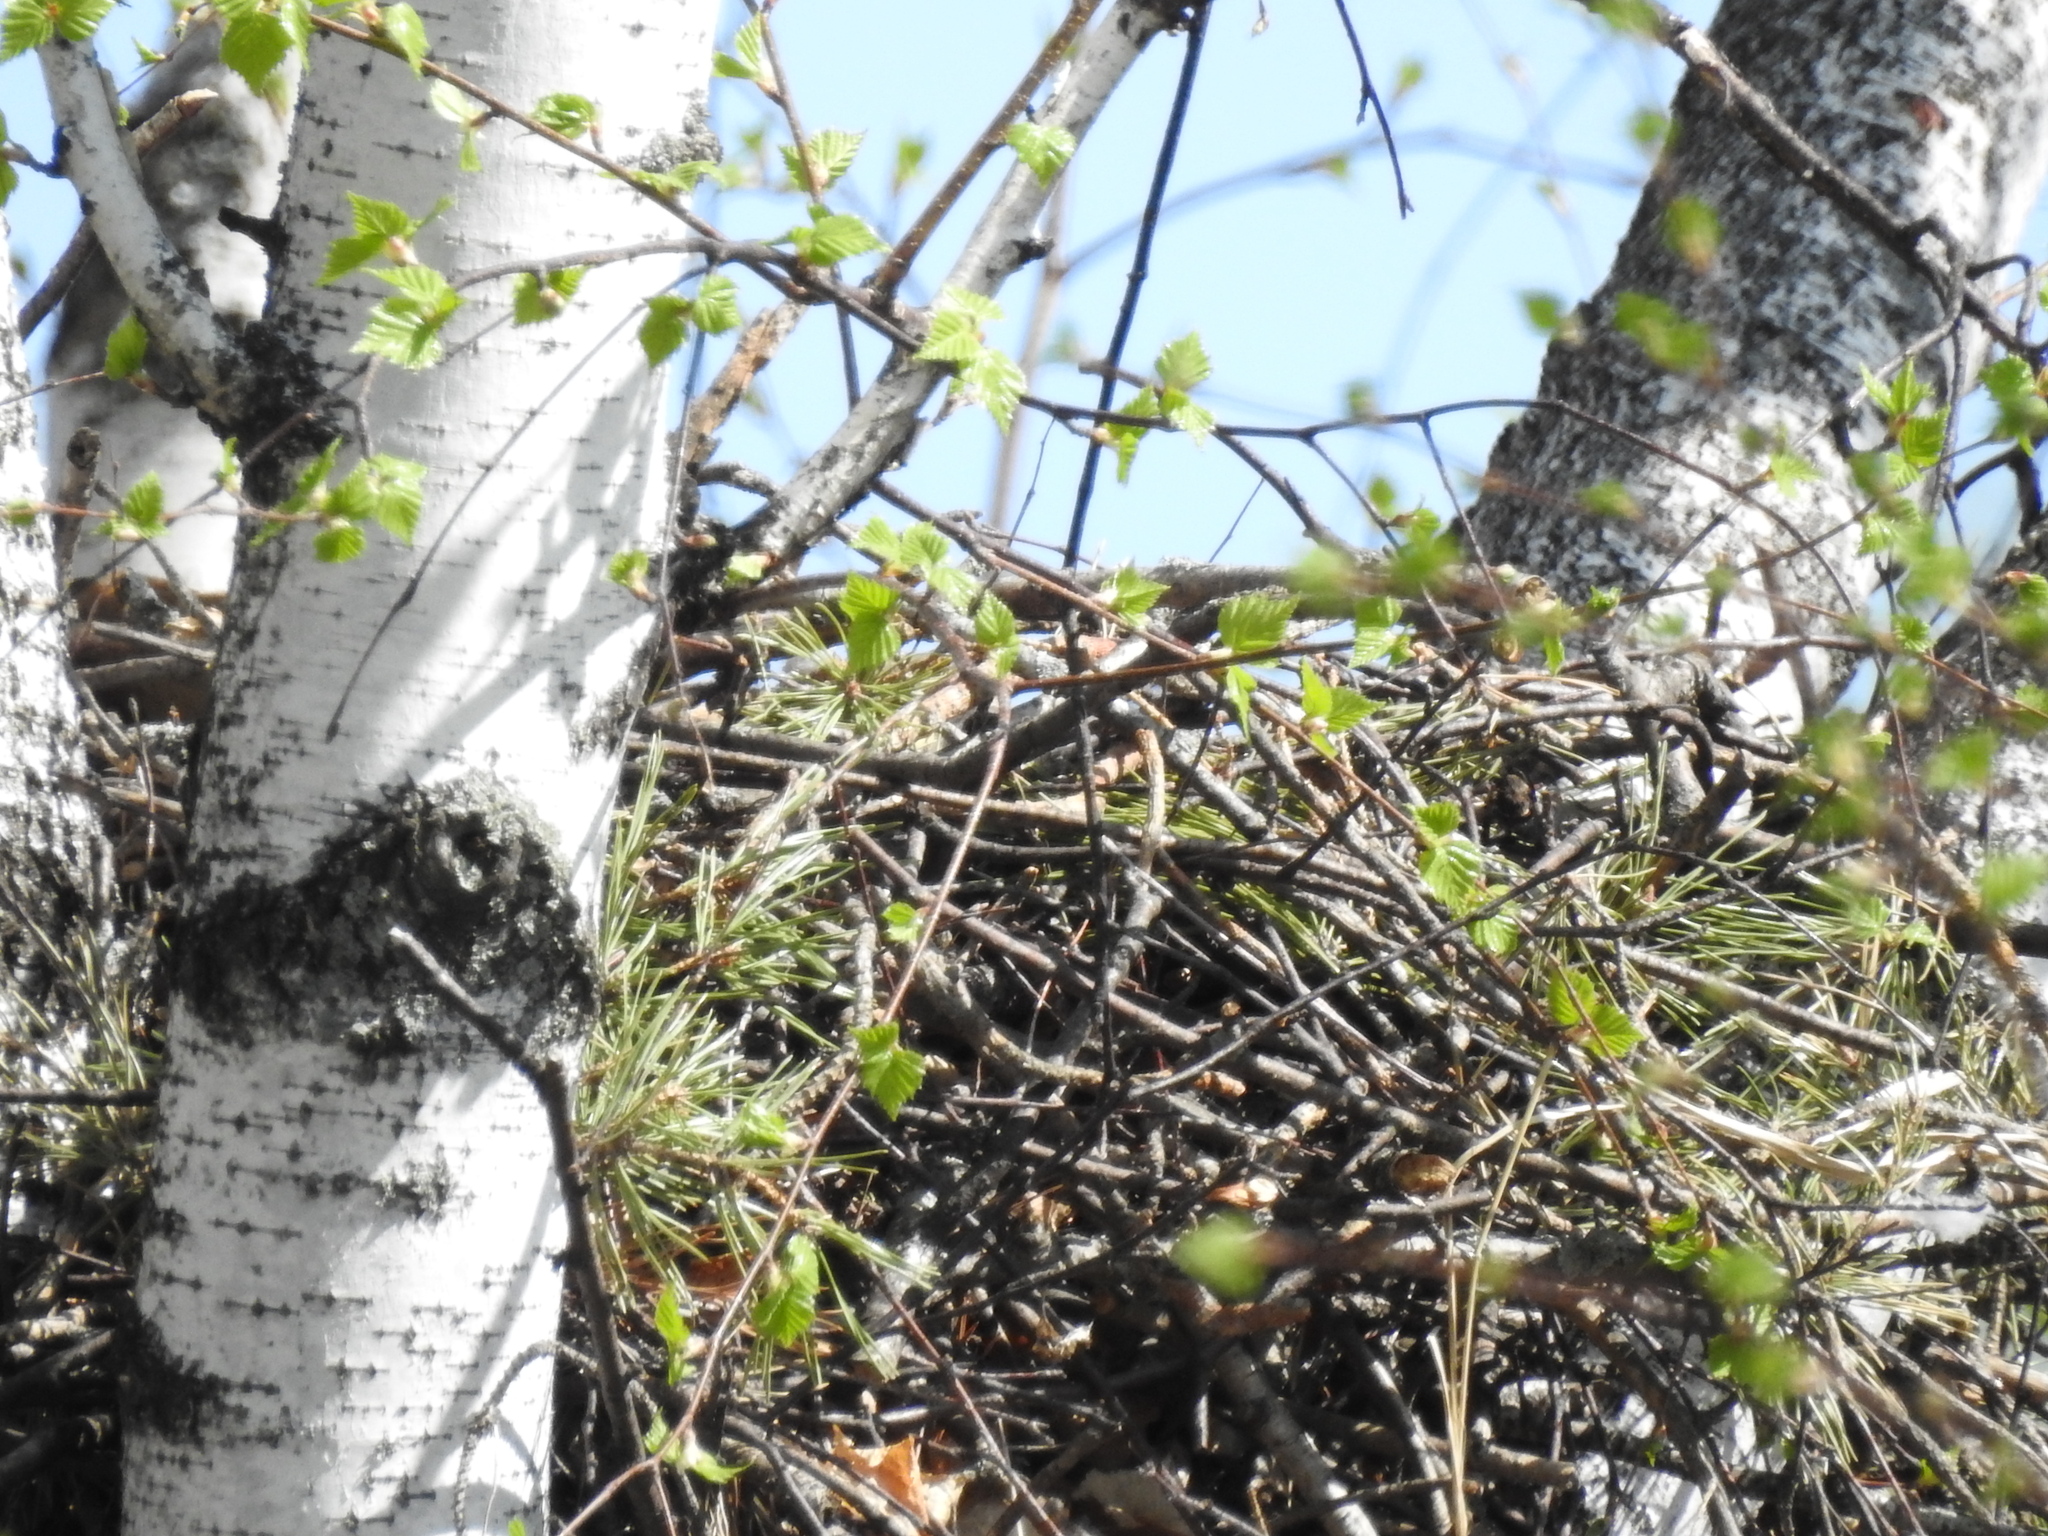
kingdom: Animalia
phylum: Chordata
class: Aves
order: Accipitriformes
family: Accipitridae
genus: Buteo
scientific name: Buteo buteo
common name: Common buzzard
